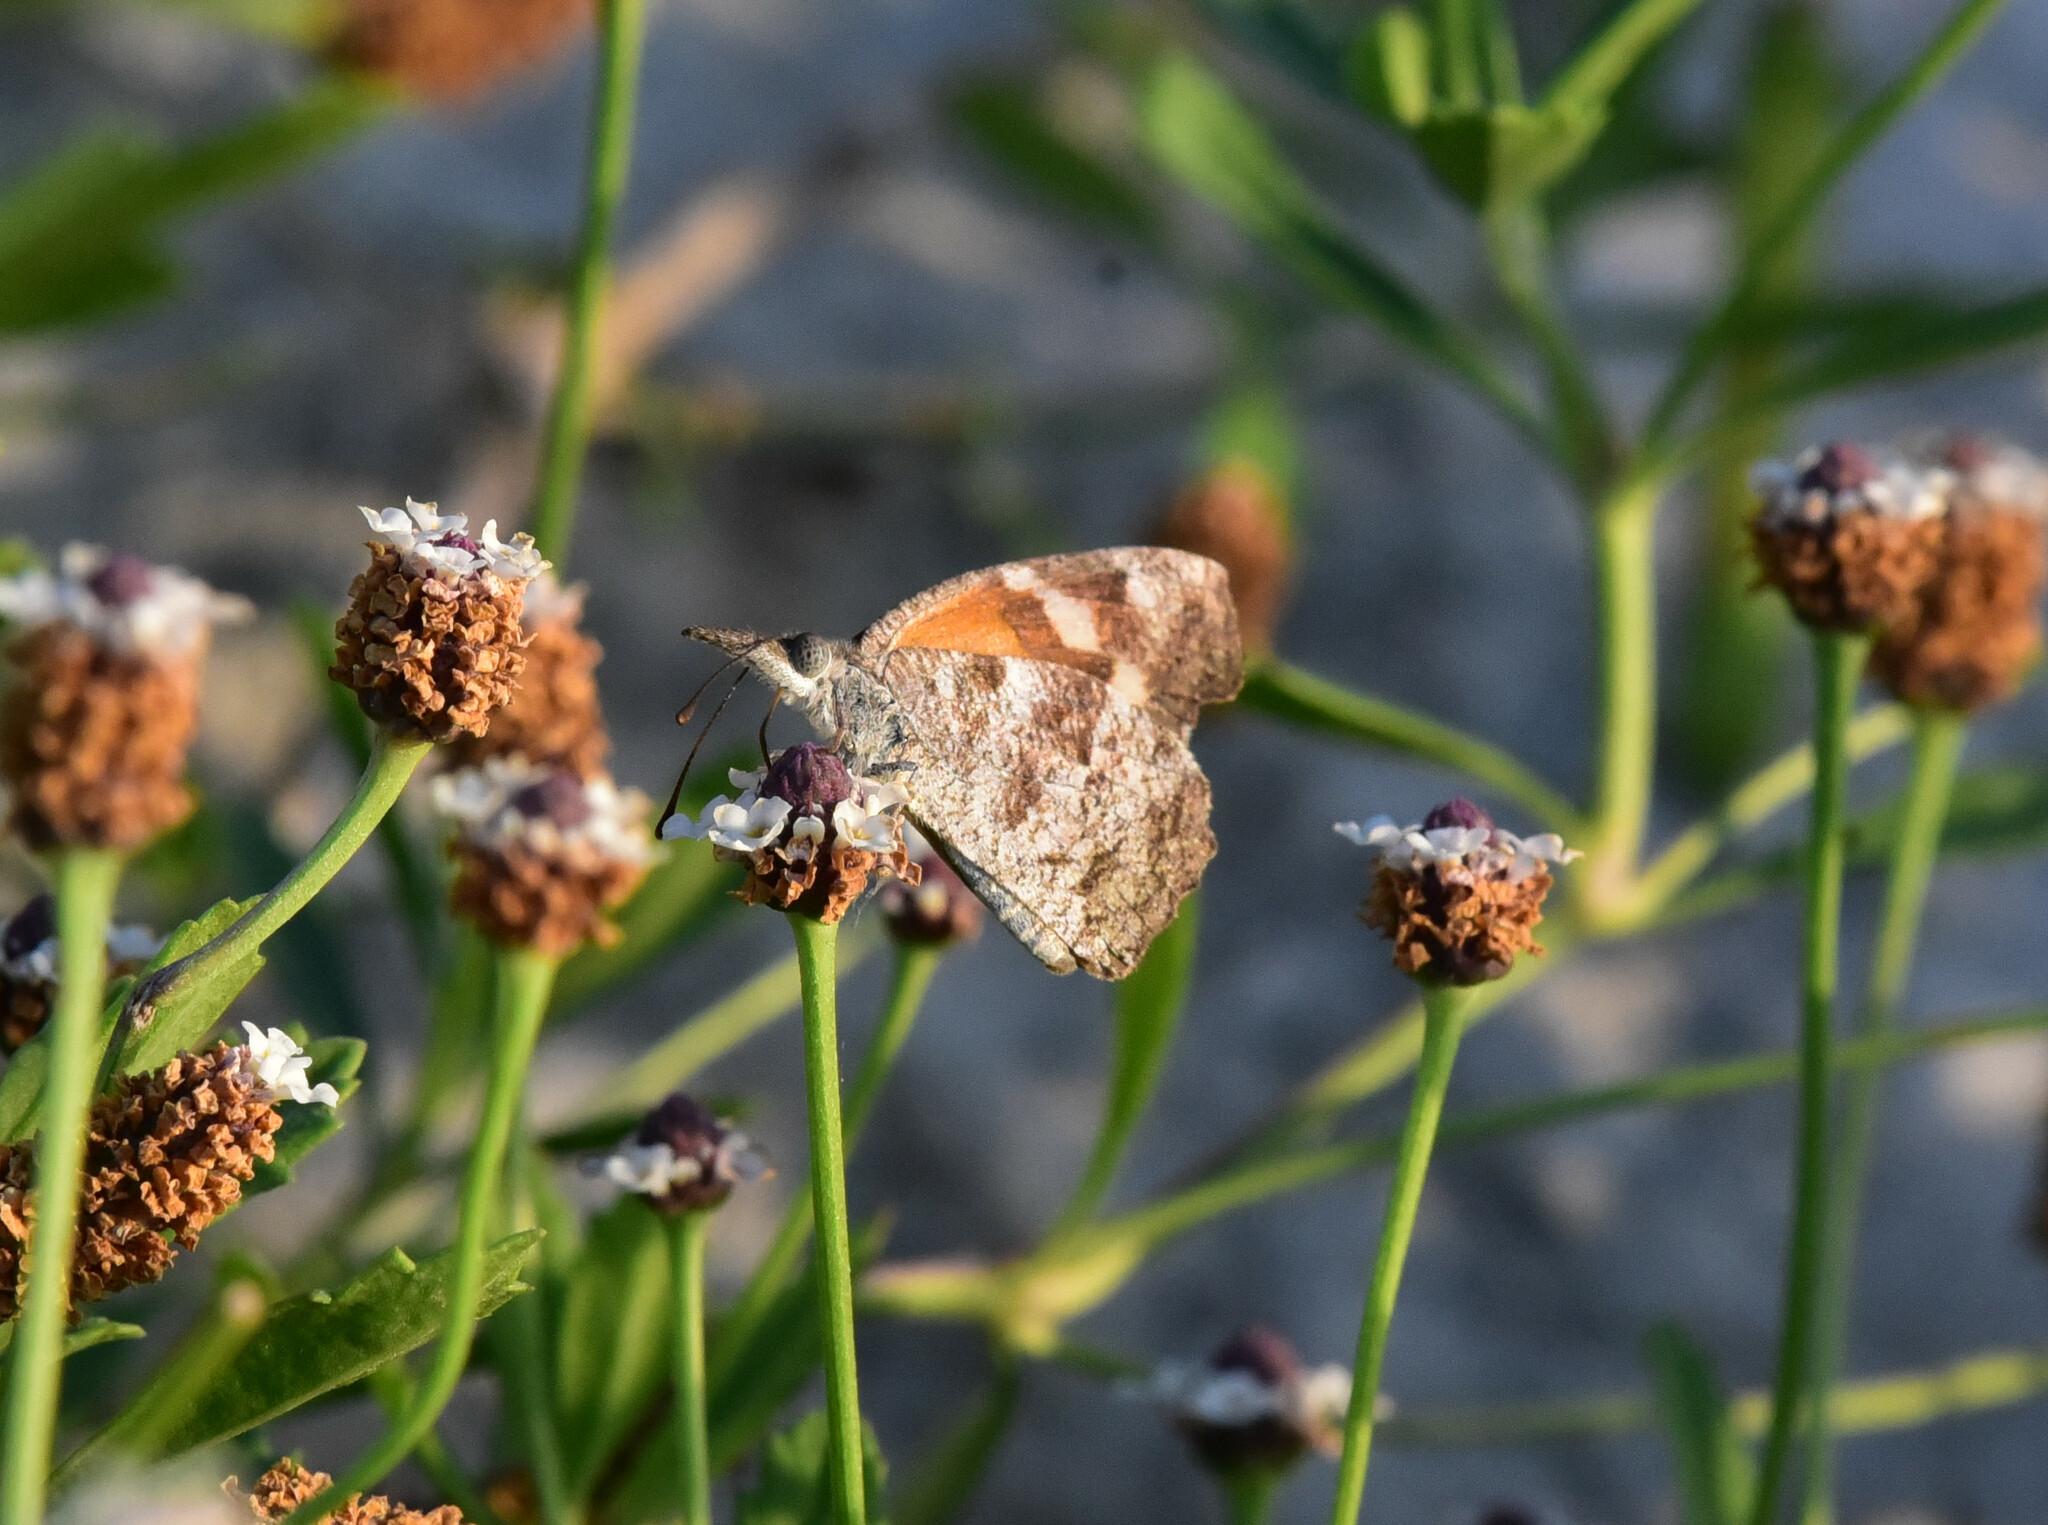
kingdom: Animalia
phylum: Arthropoda
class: Insecta
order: Lepidoptera
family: Nymphalidae
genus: Libytheana
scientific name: Libytheana carinenta
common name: American snout
